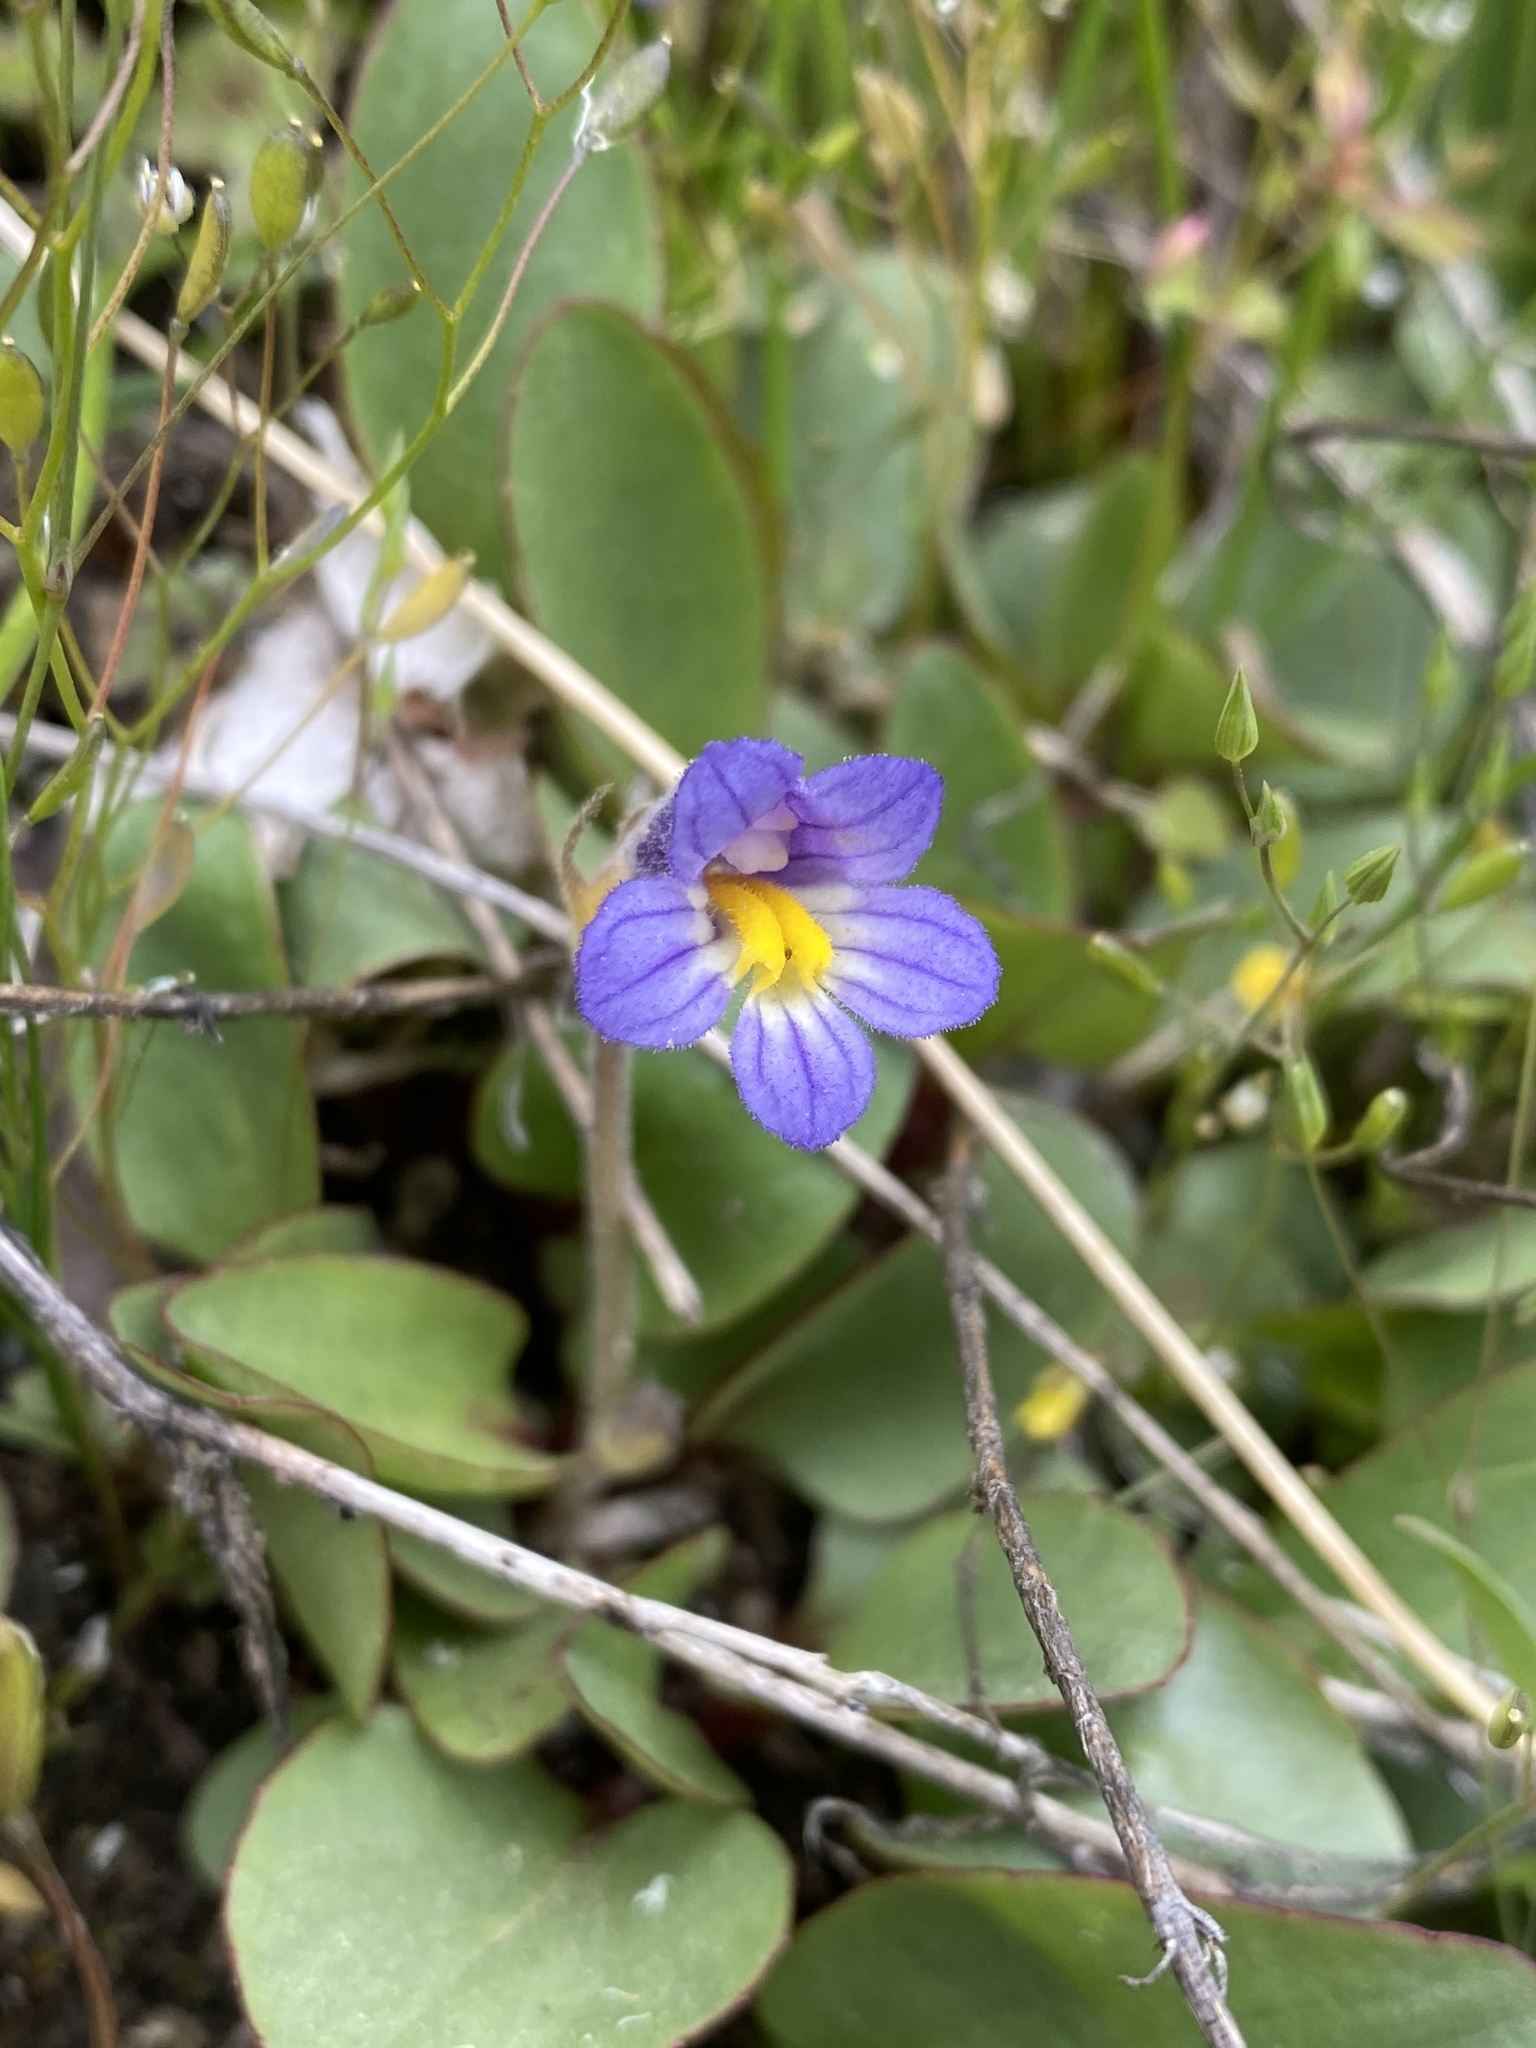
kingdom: Plantae
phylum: Tracheophyta
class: Magnoliopsida
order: Lamiales
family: Orobanchaceae
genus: Aphyllon
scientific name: Aphyllon uniflorum
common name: One-flowered broomrape
